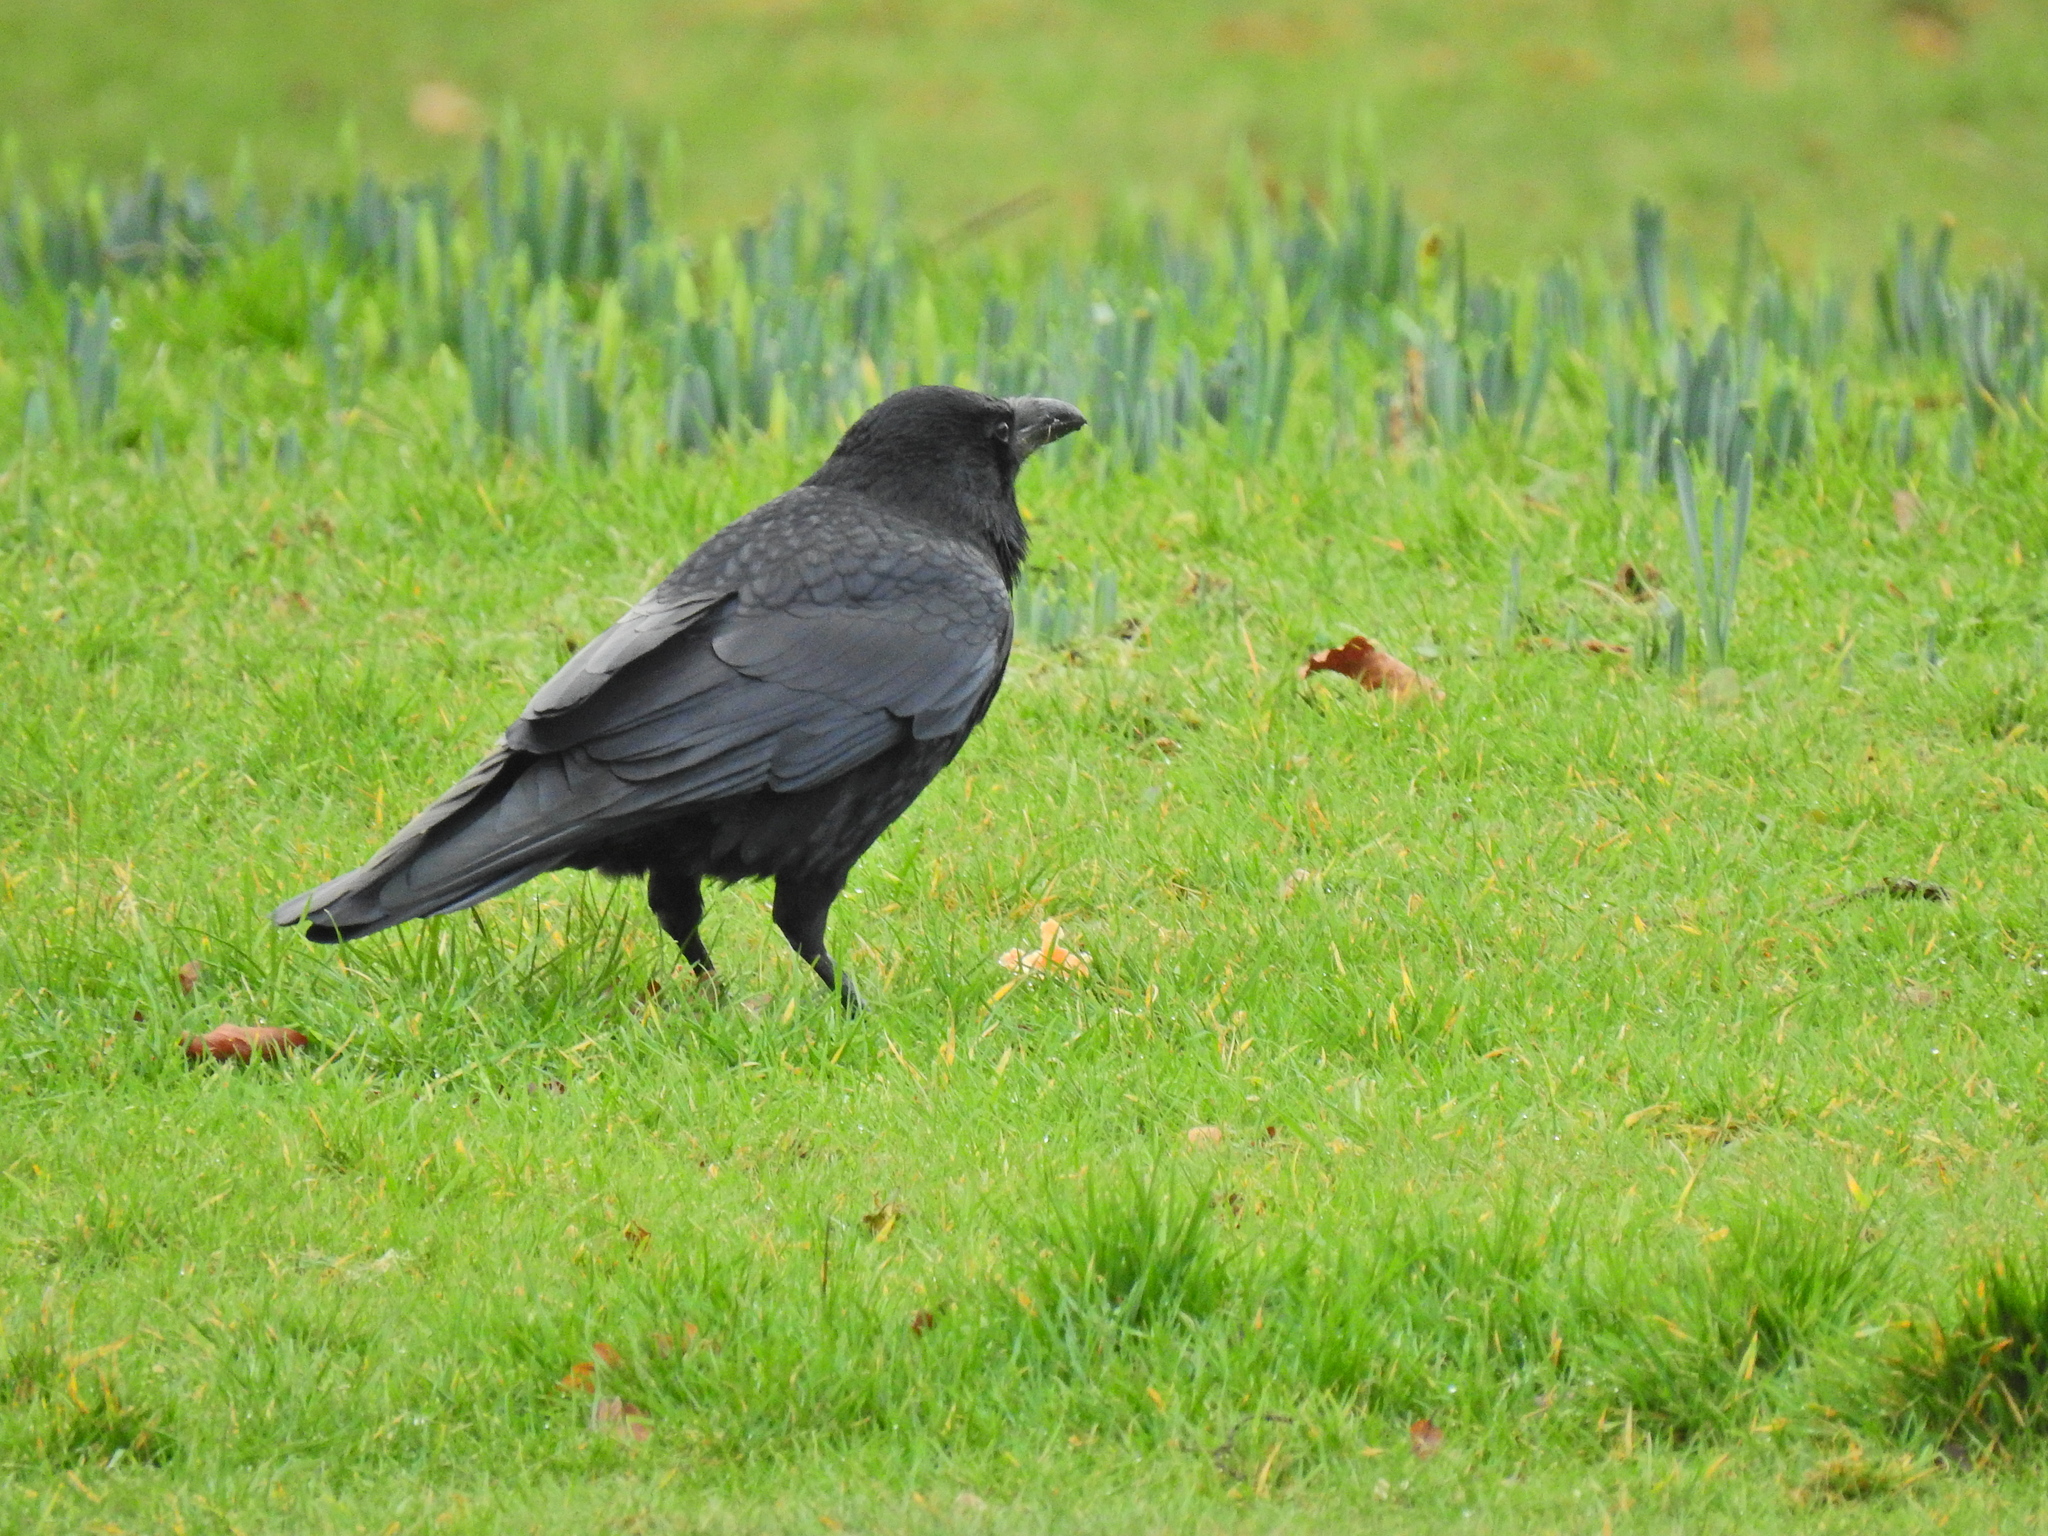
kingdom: Animalia
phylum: Chordata
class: Aves
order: Passeriformes
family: Corvidae
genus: Corvus
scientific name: Corvus corone
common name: Carrion crow
